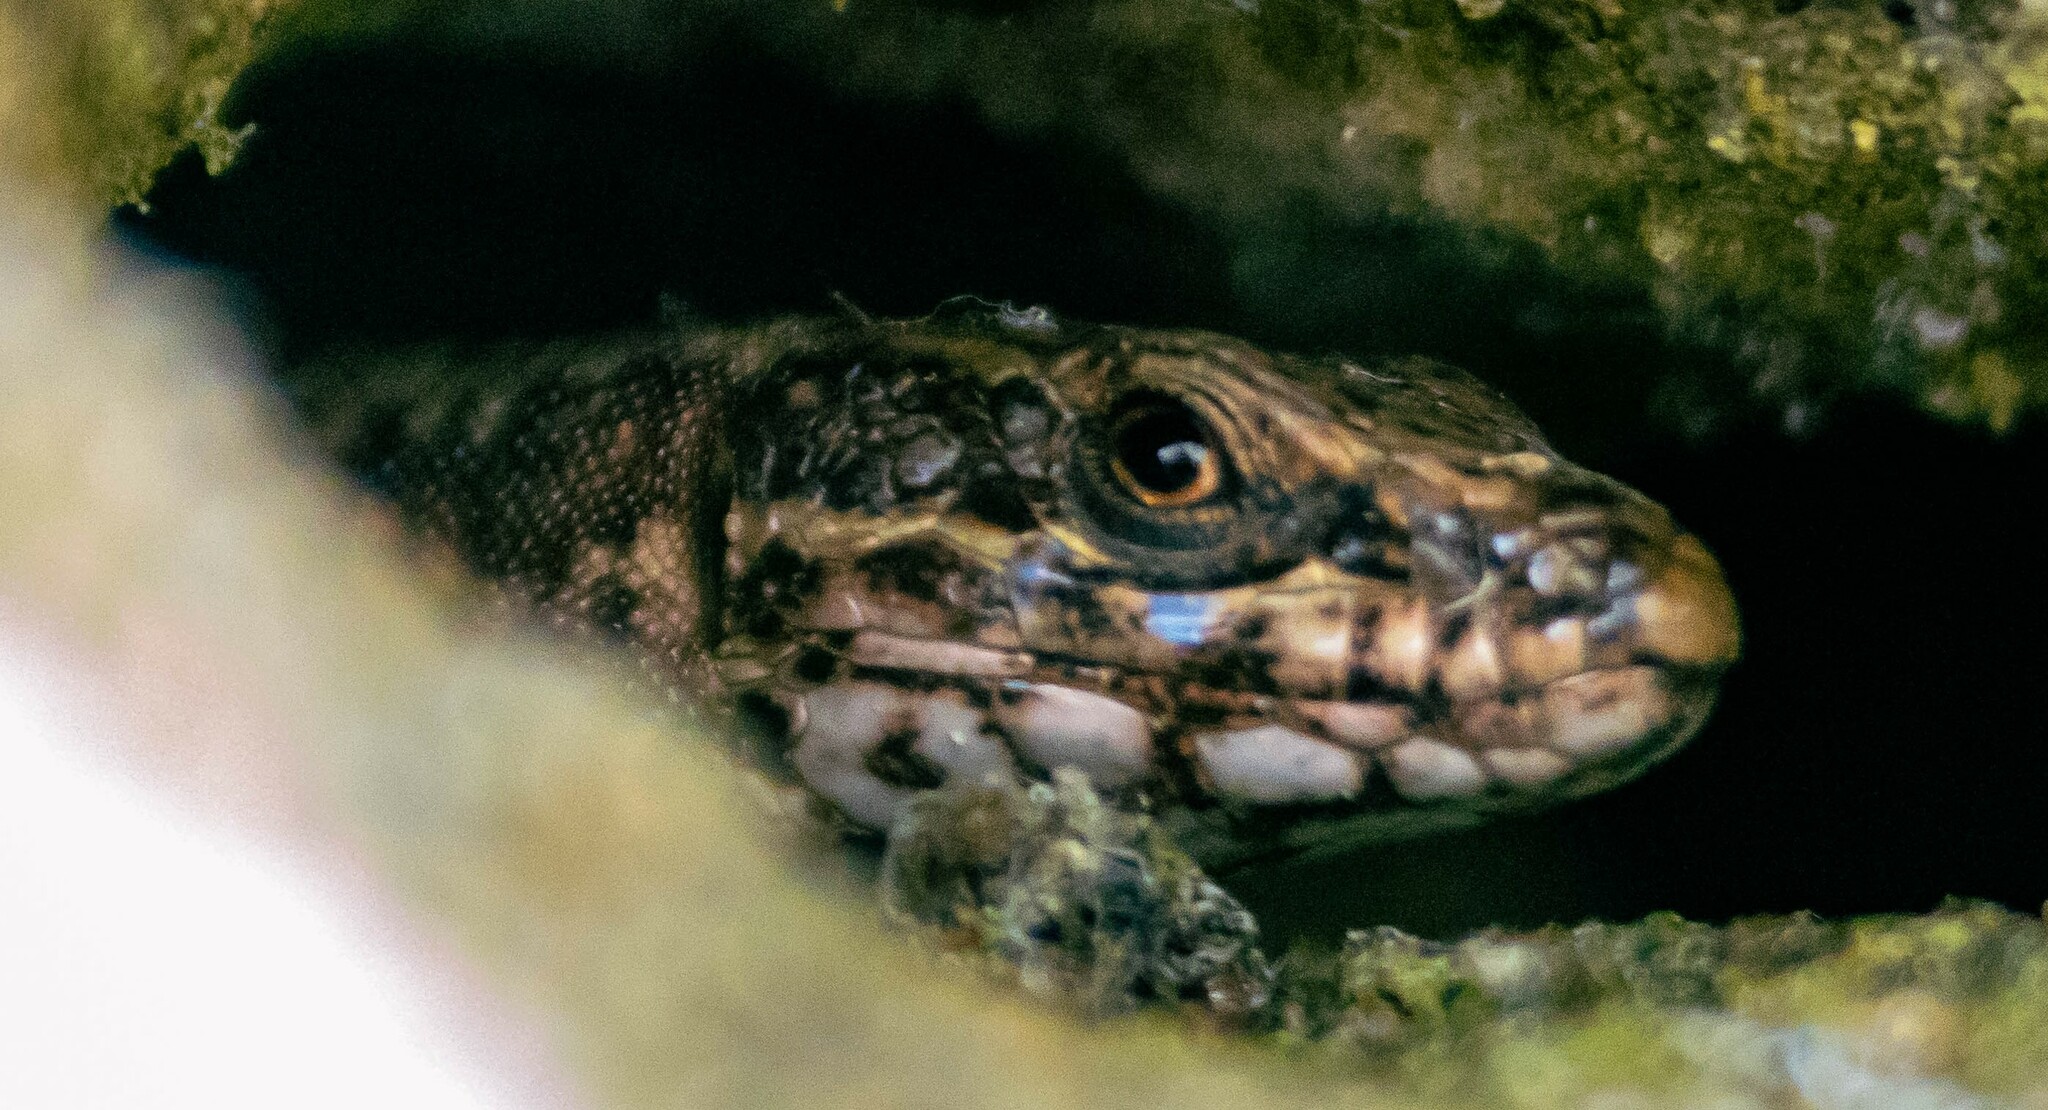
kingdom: Animalia
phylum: Chordata
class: Squamata
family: Lacertidae
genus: Podarcis
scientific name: Podarcis muralis
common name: Common wall lizard
